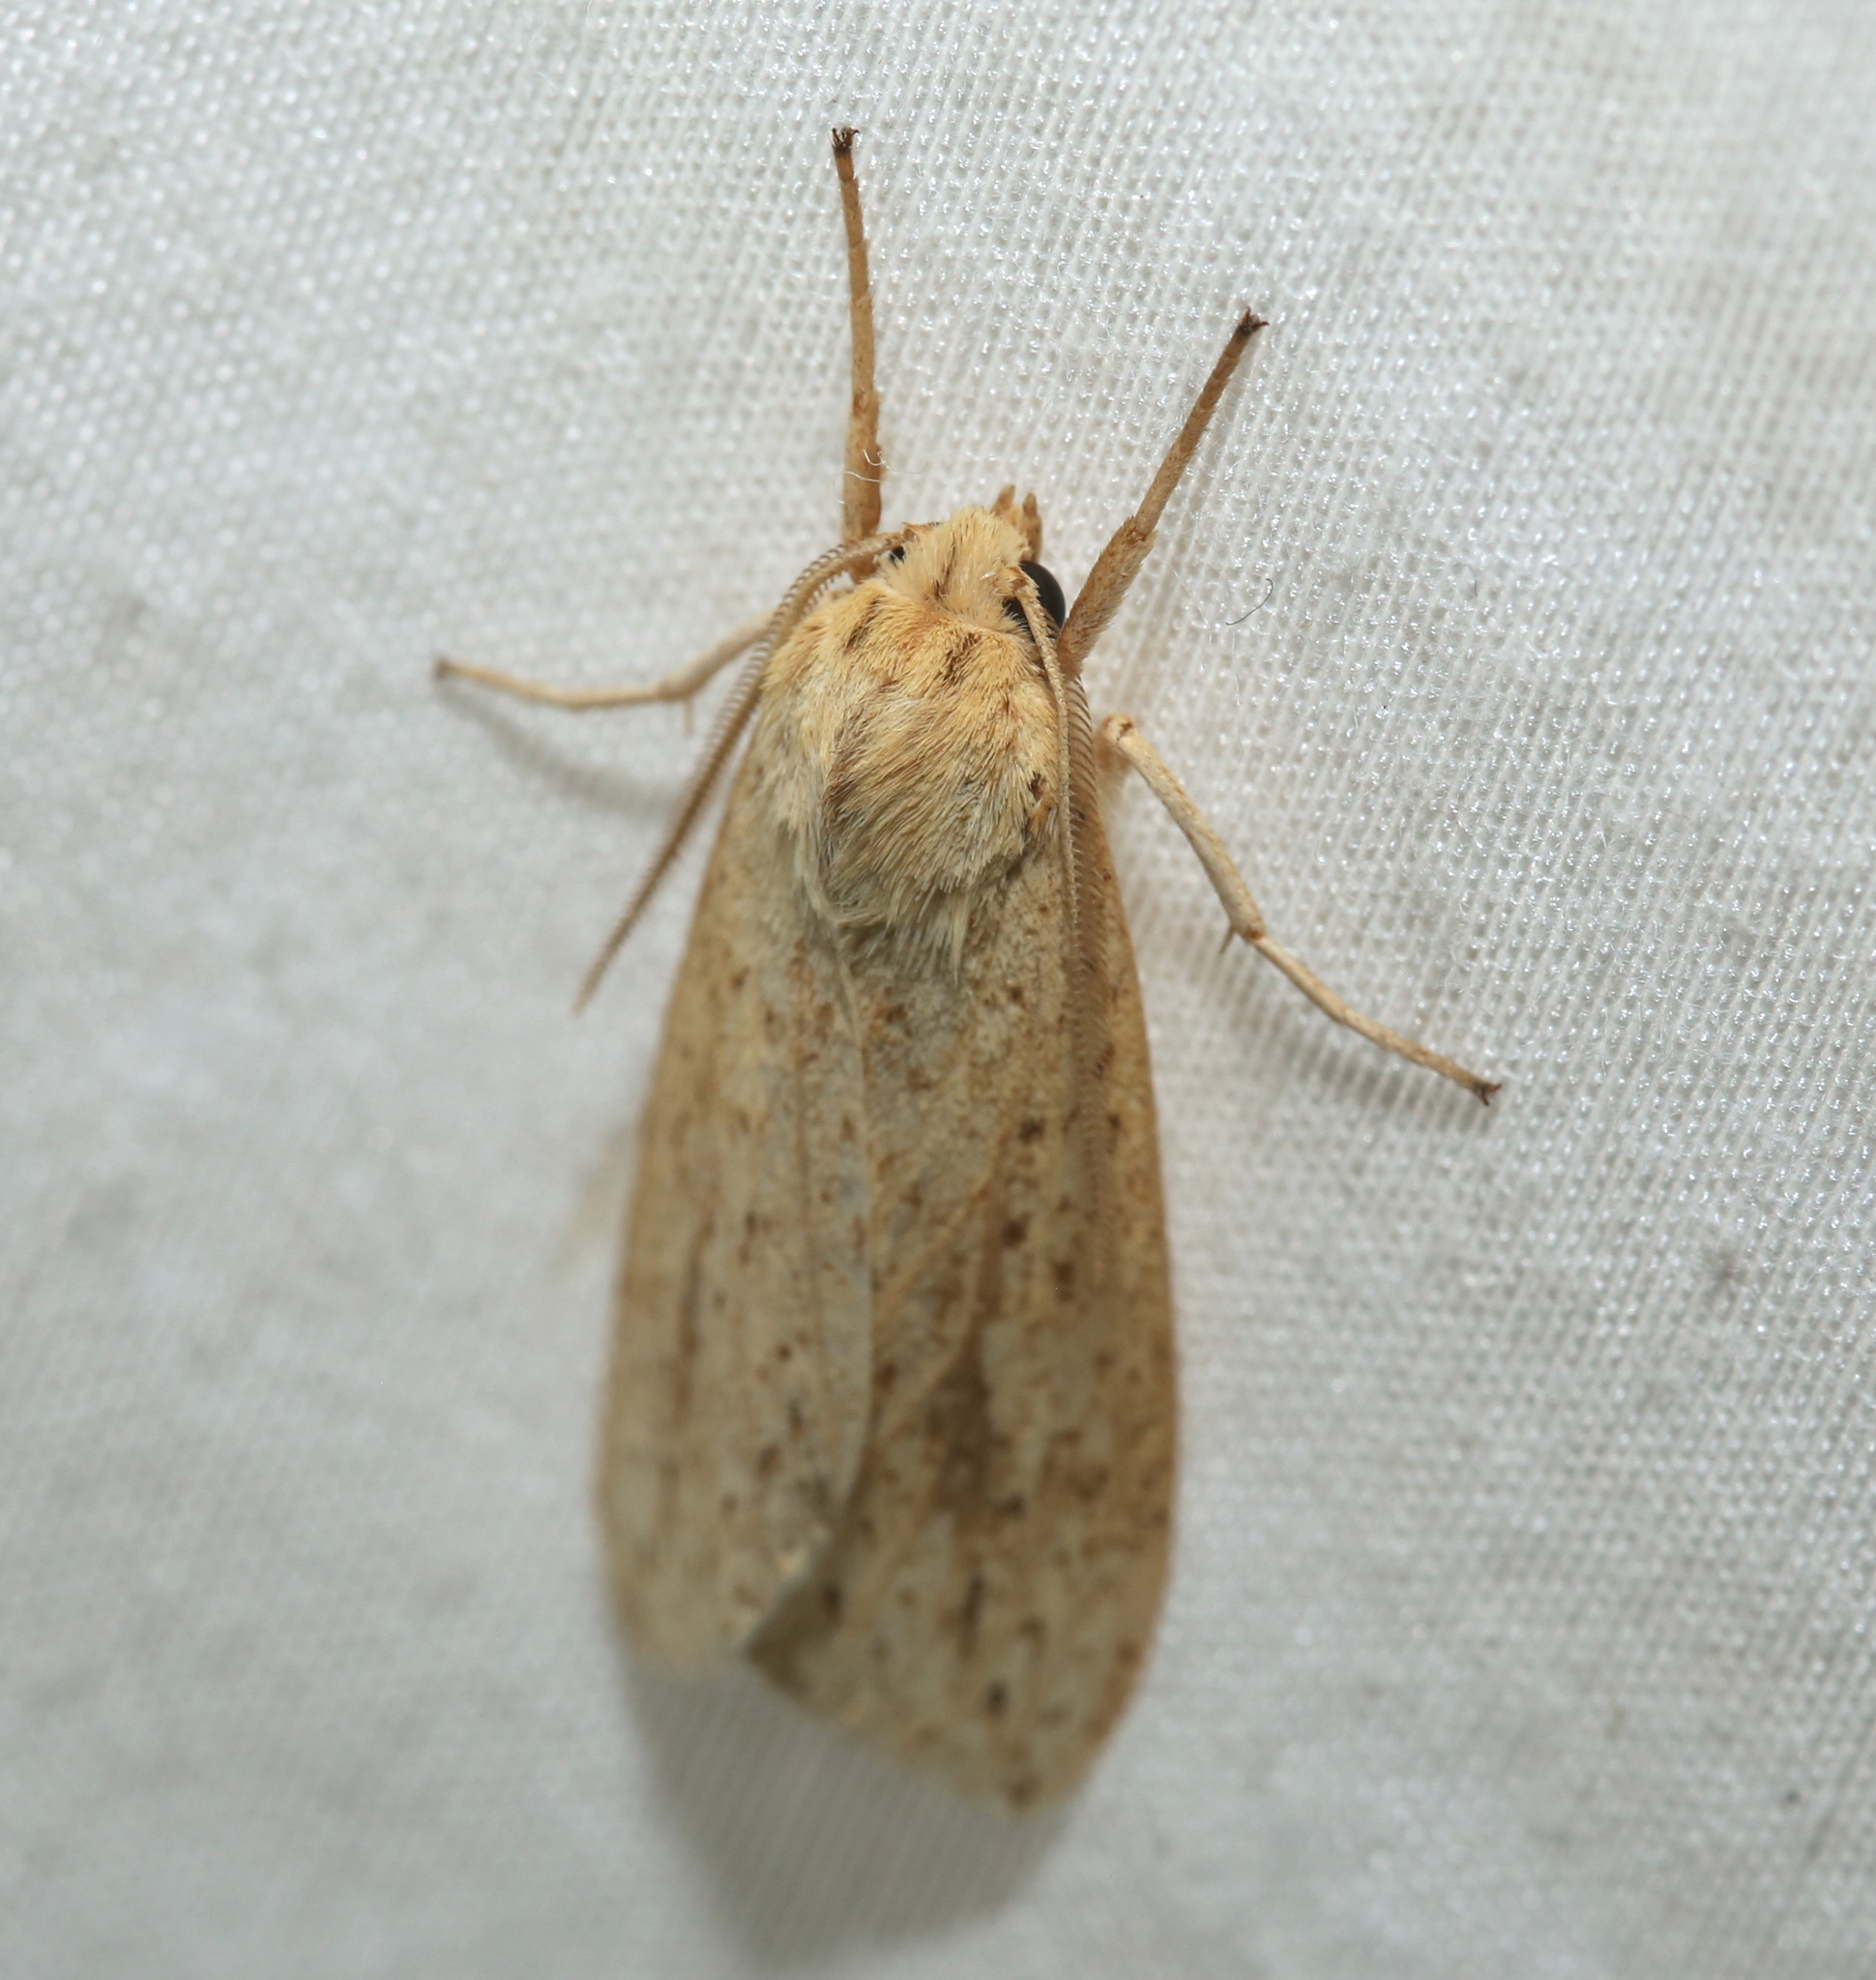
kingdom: Animalia
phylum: Arthropoda
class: Insecta
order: Lepidoptera
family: Erebidae
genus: Leucanopsis
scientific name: Leucanopsis longa
